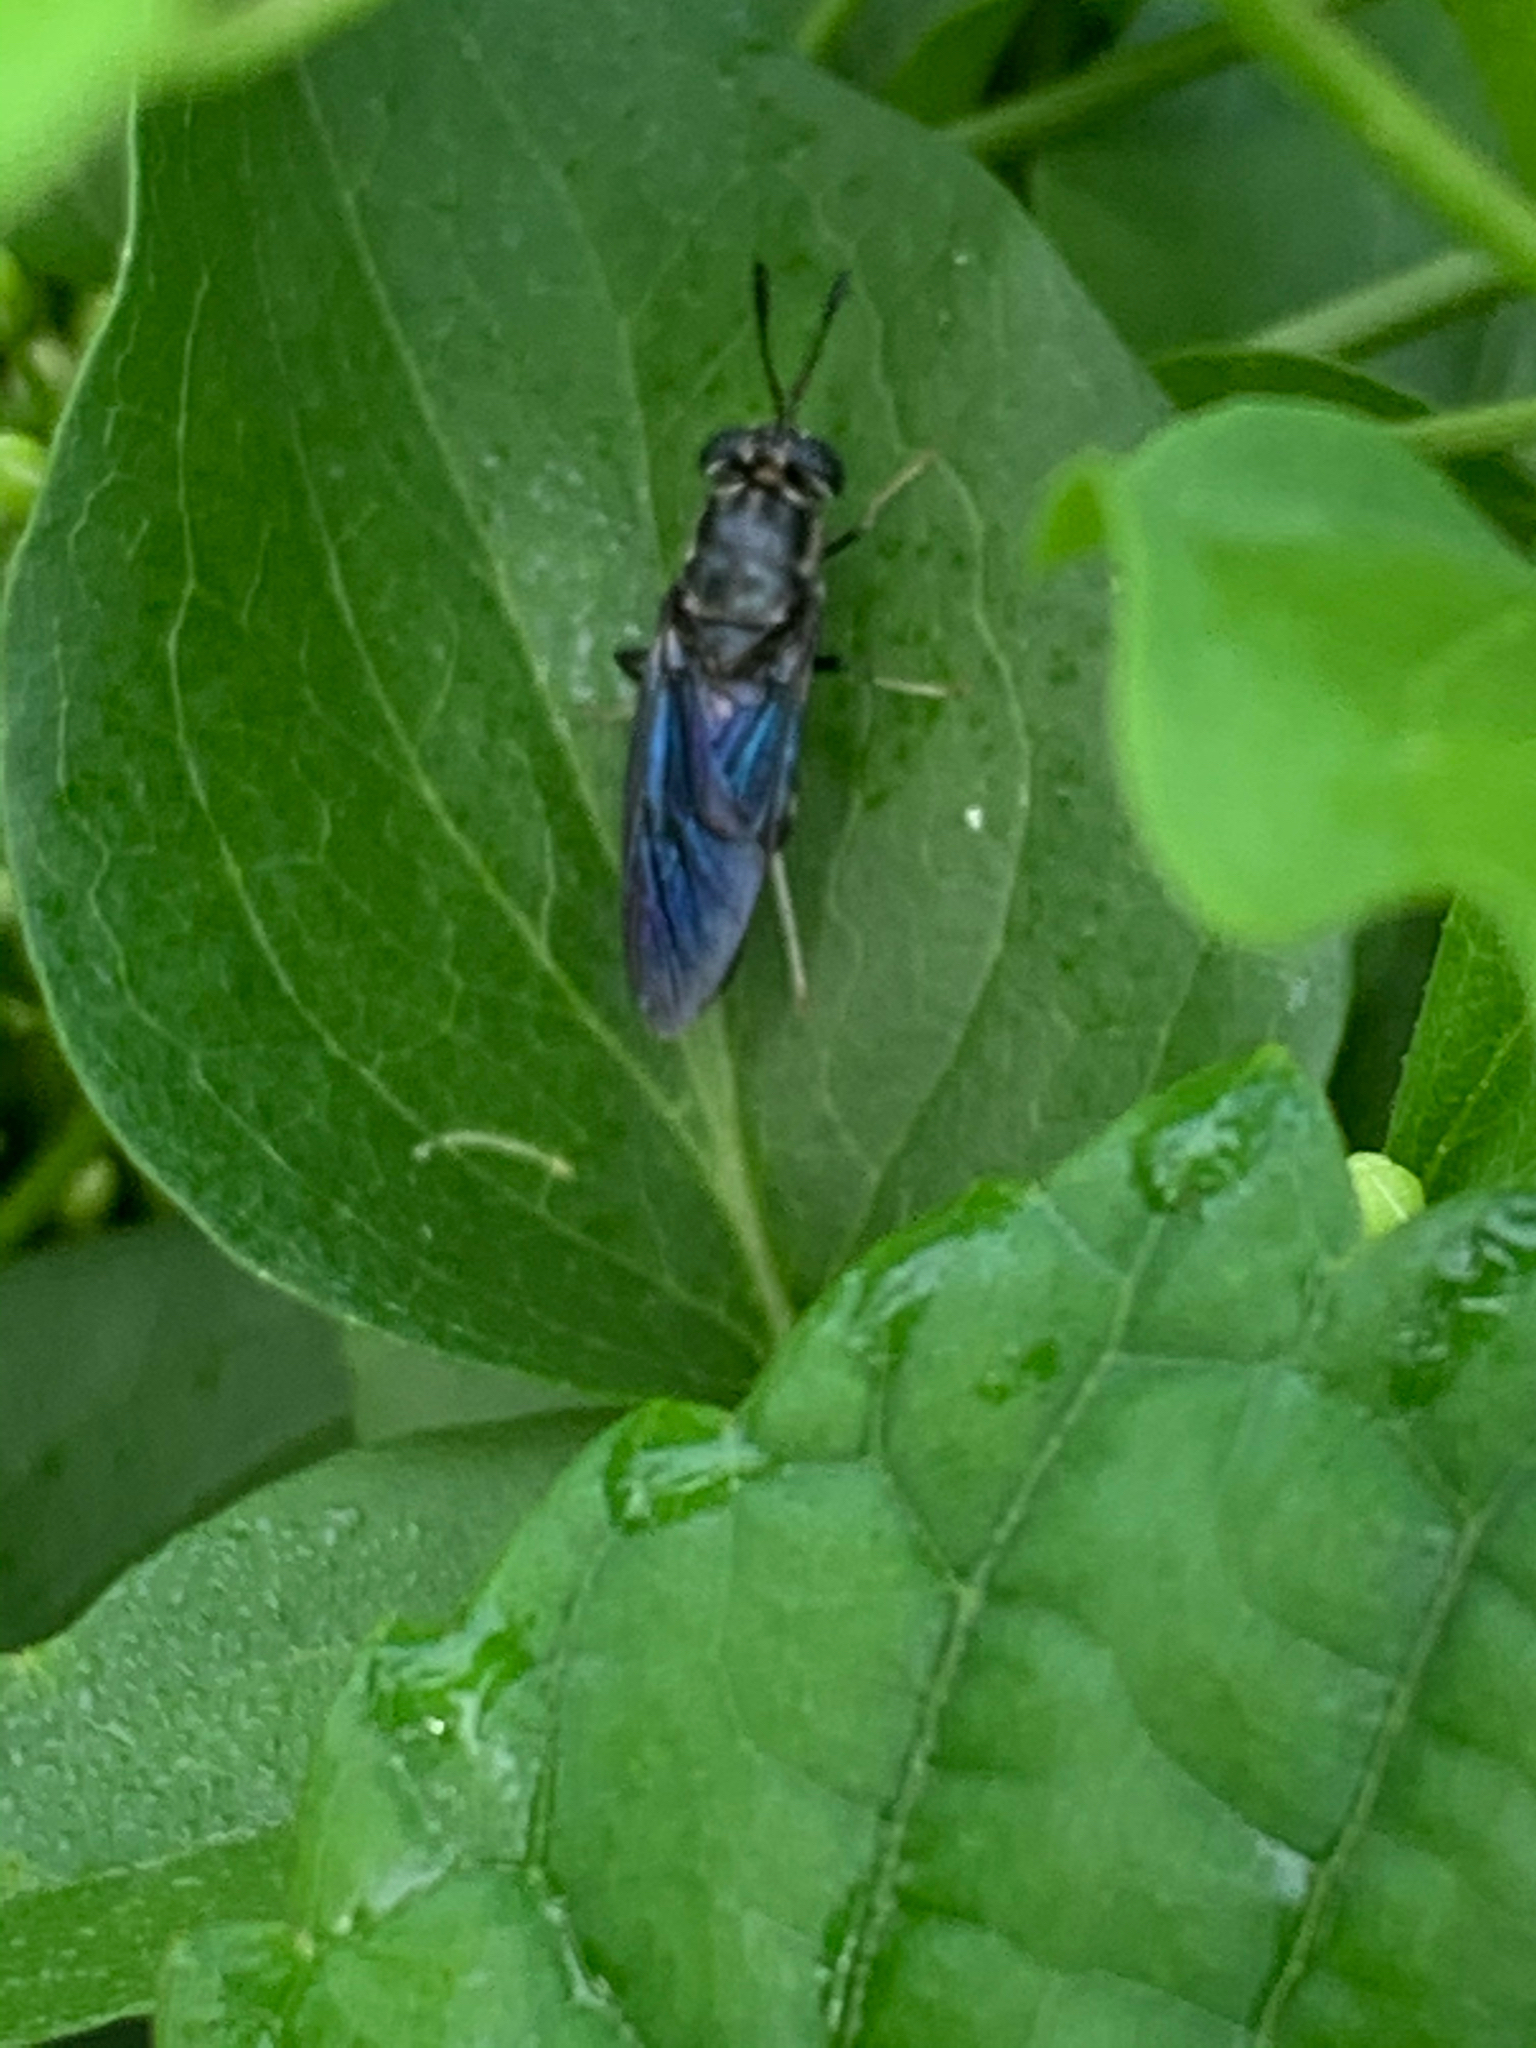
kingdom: Animalia
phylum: Arthropoda
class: Insecta
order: Diptera
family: Stratiomyidae
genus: Hermetia
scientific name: Hermetia illucens
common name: Black soldier fly
